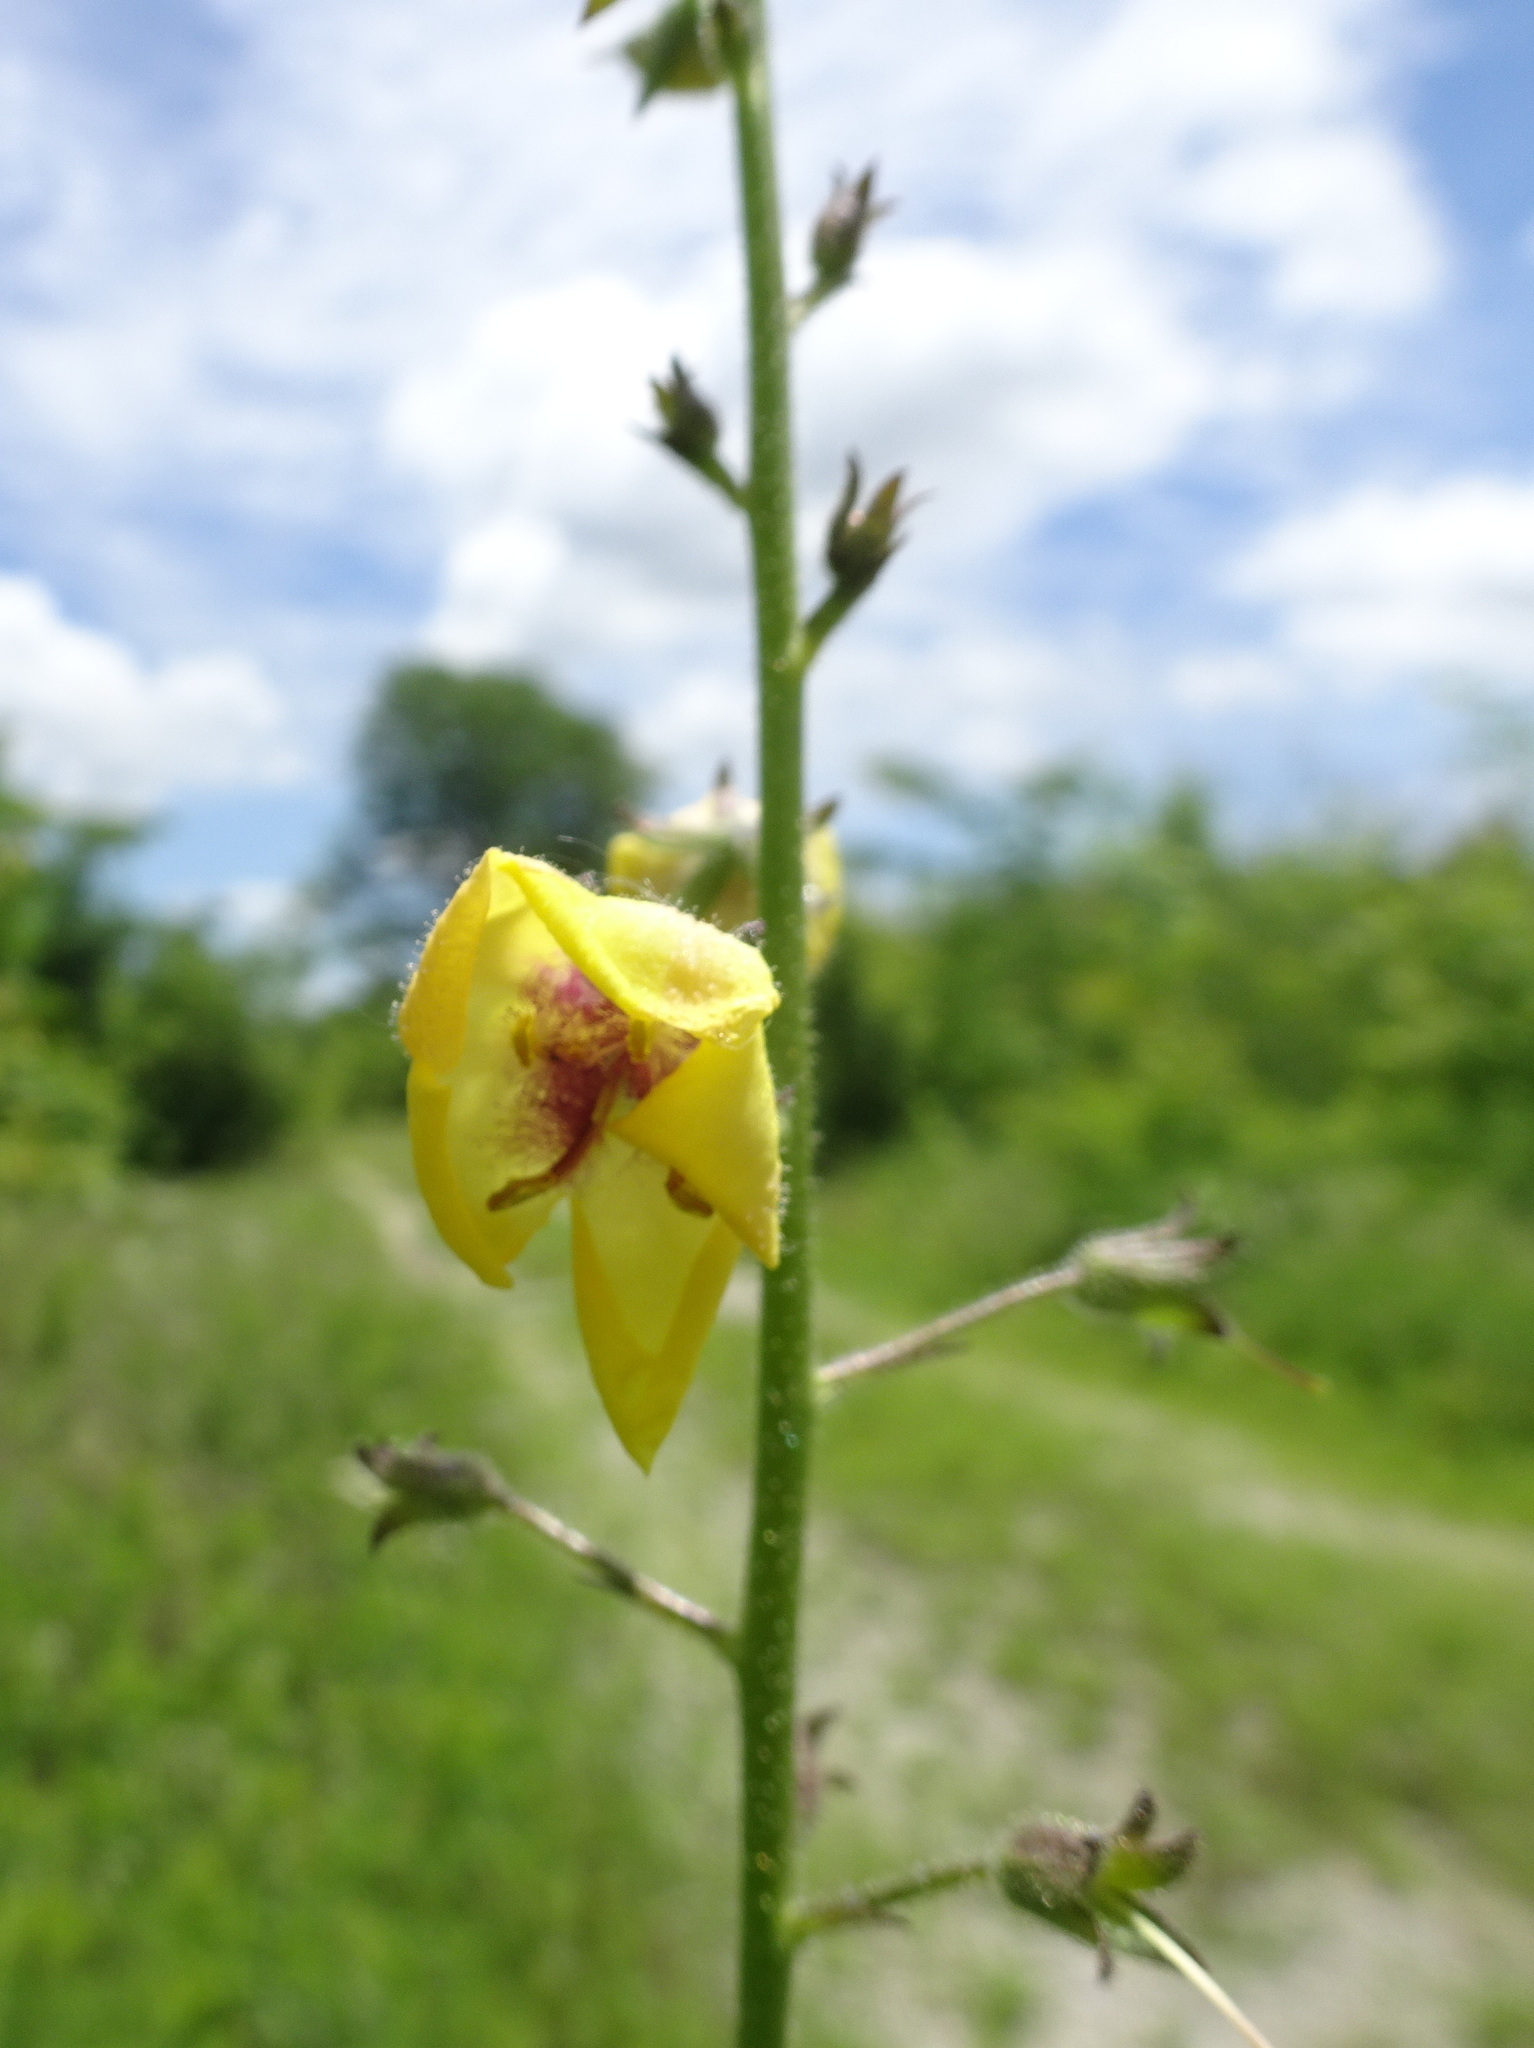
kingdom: Plantae
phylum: Tracheophyta
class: Magnoliopsida
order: Lamiales
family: Scrophulariaceae
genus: Verbascum
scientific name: Verbascum blattaria
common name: Moth mullein
